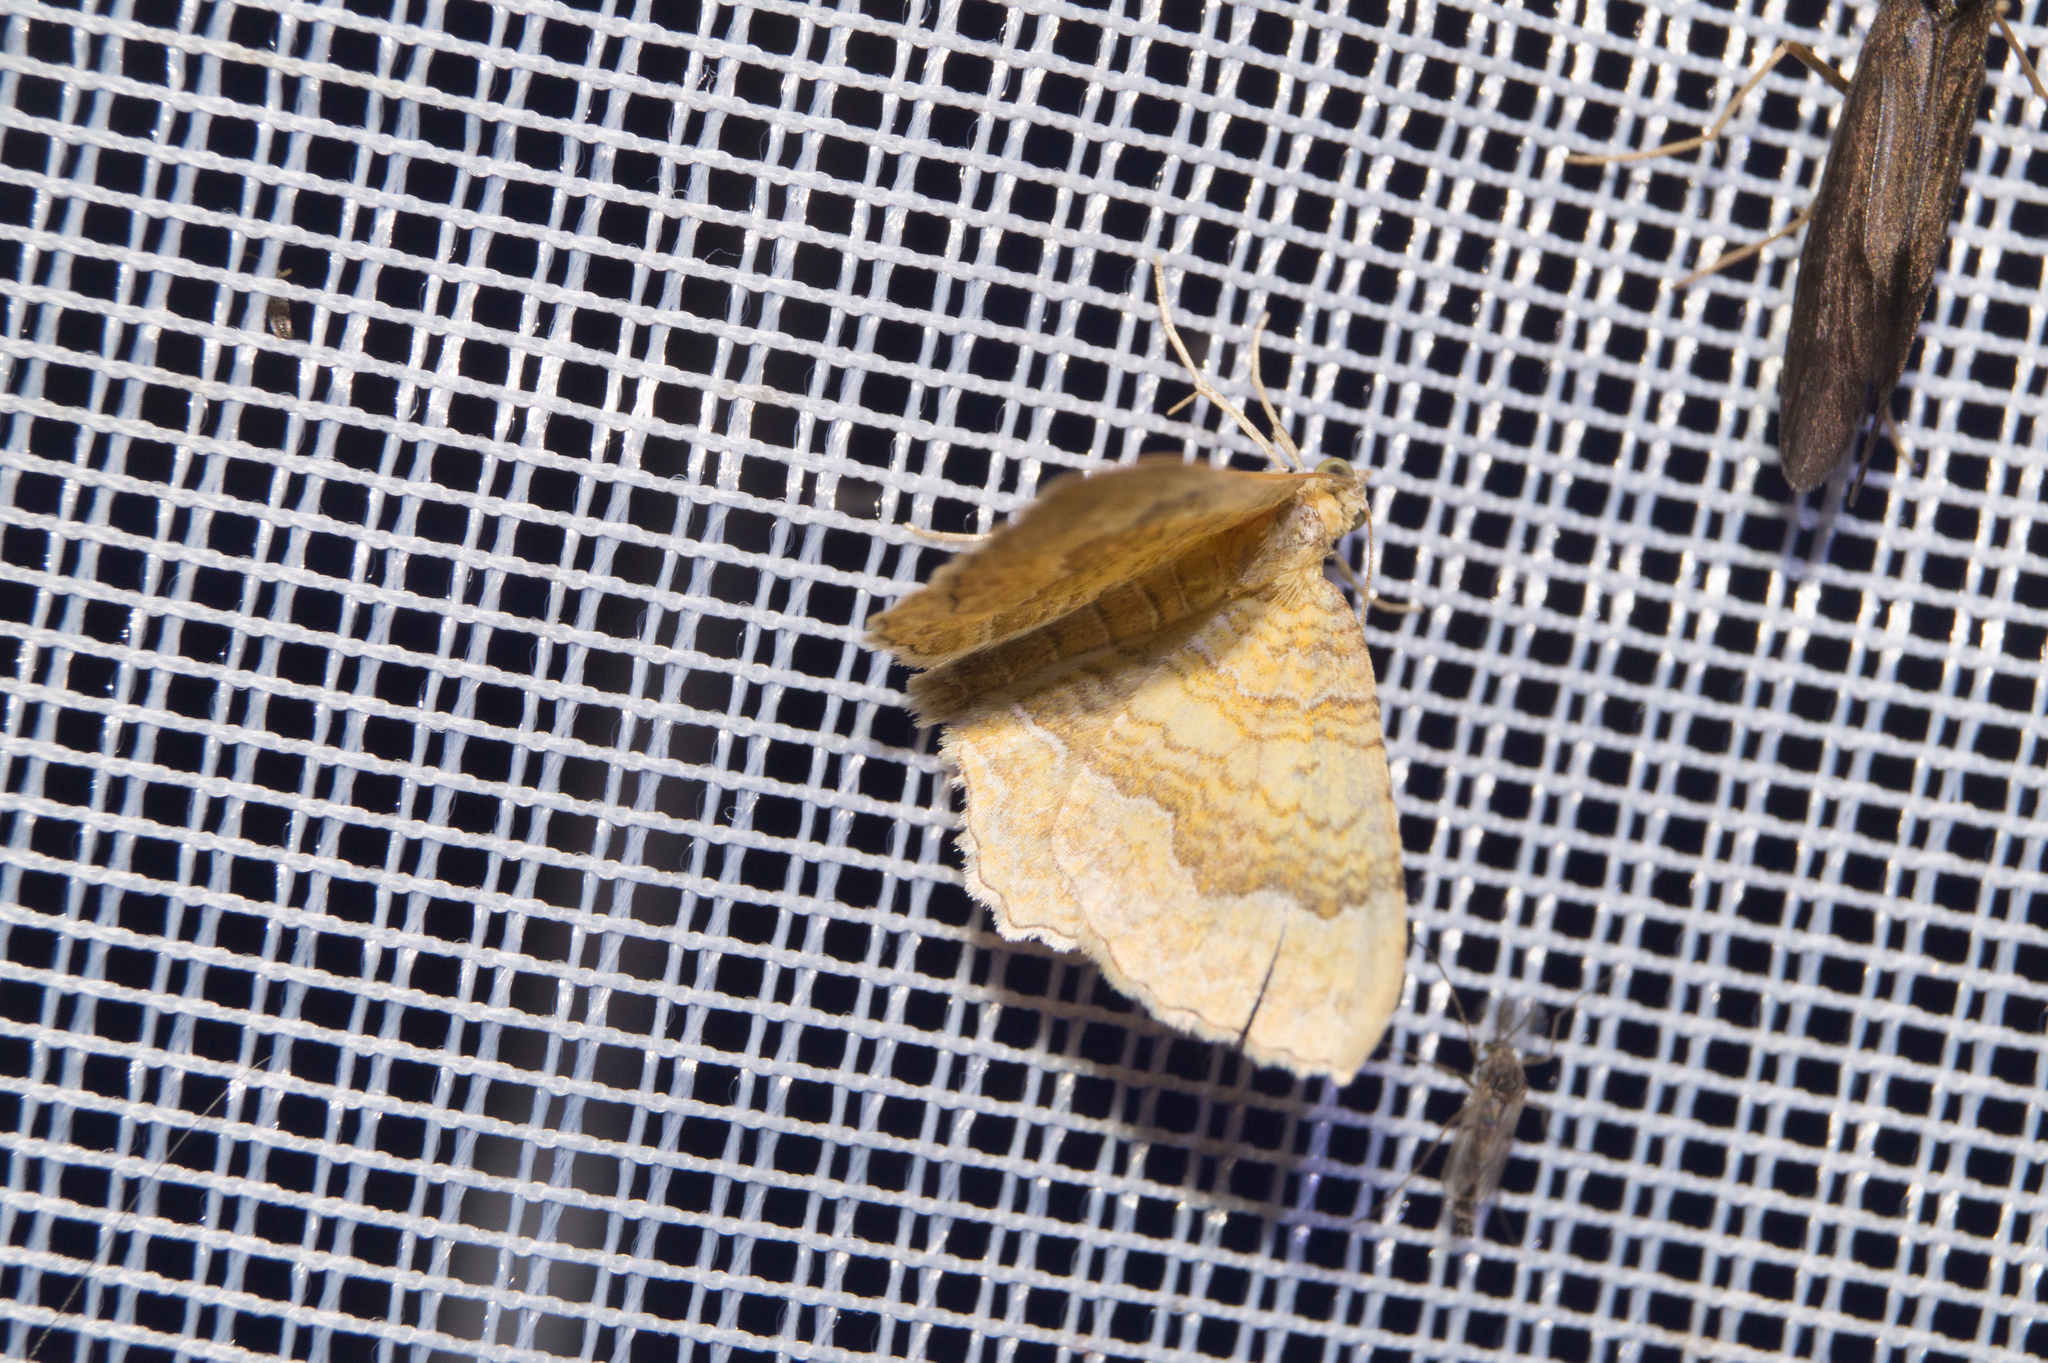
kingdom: Animalia
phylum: Arthropoda
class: Insecta
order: Lepidoptera
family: Geometridae
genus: Camptogramma
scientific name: Camptogramma bilineata
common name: Yellow shell
